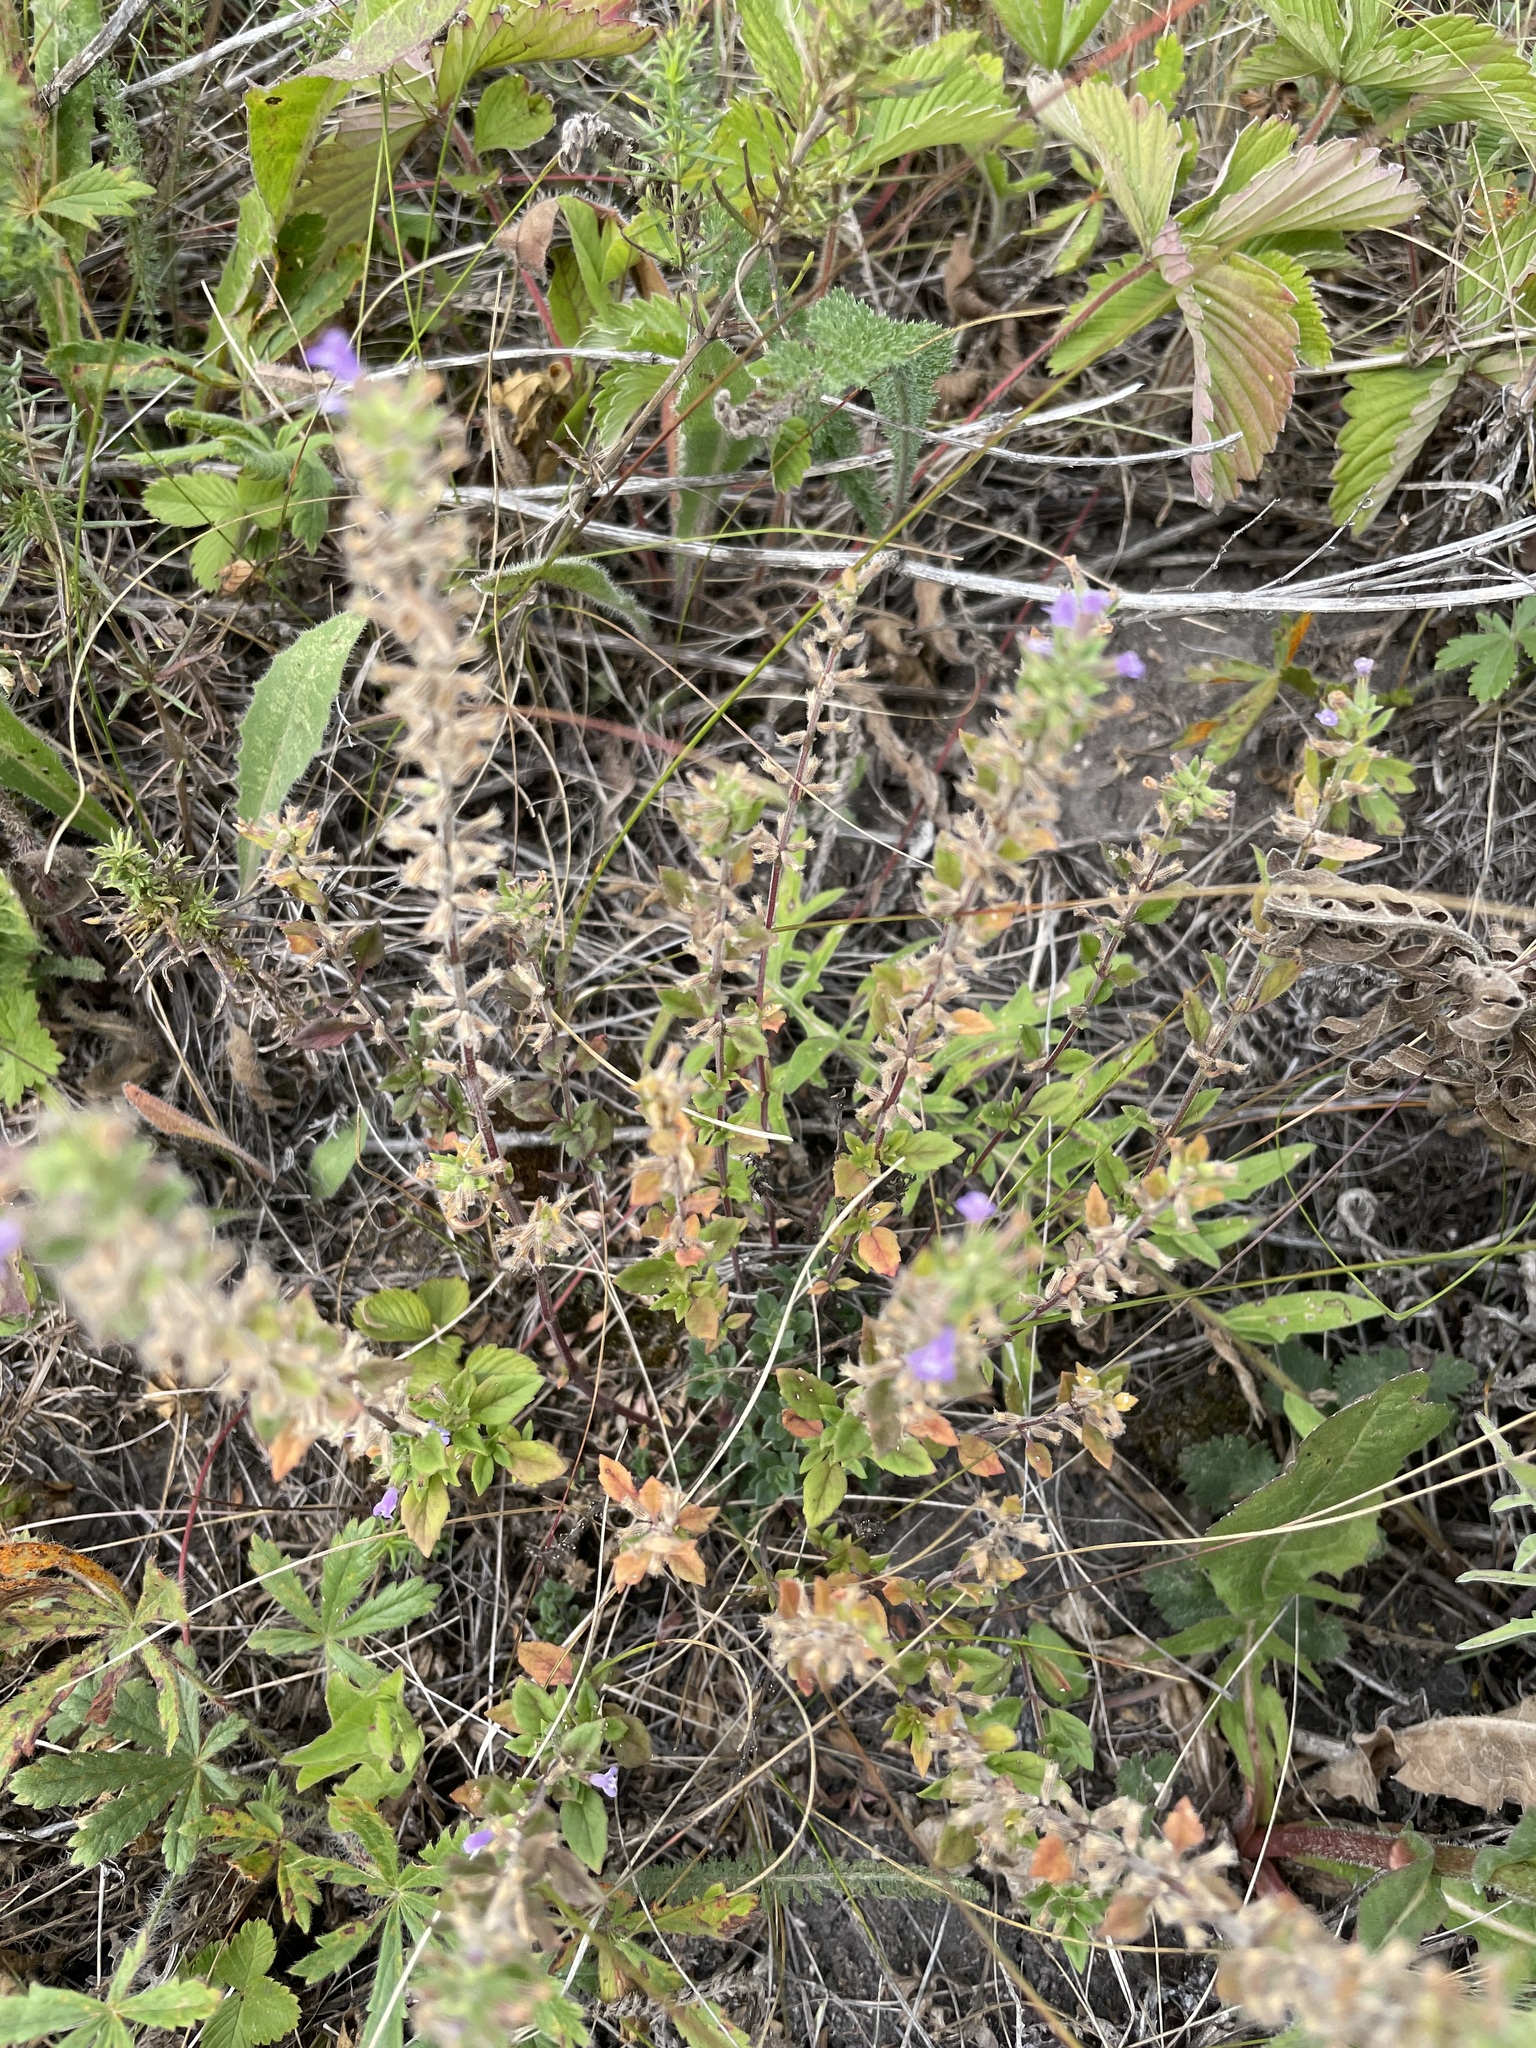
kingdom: Plantae
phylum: Tracheophyta
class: Magnoliopsida
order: Lamiales
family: Lamiaceae
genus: Clinopodium
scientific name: Clinopodium acinos
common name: Basil thyme
